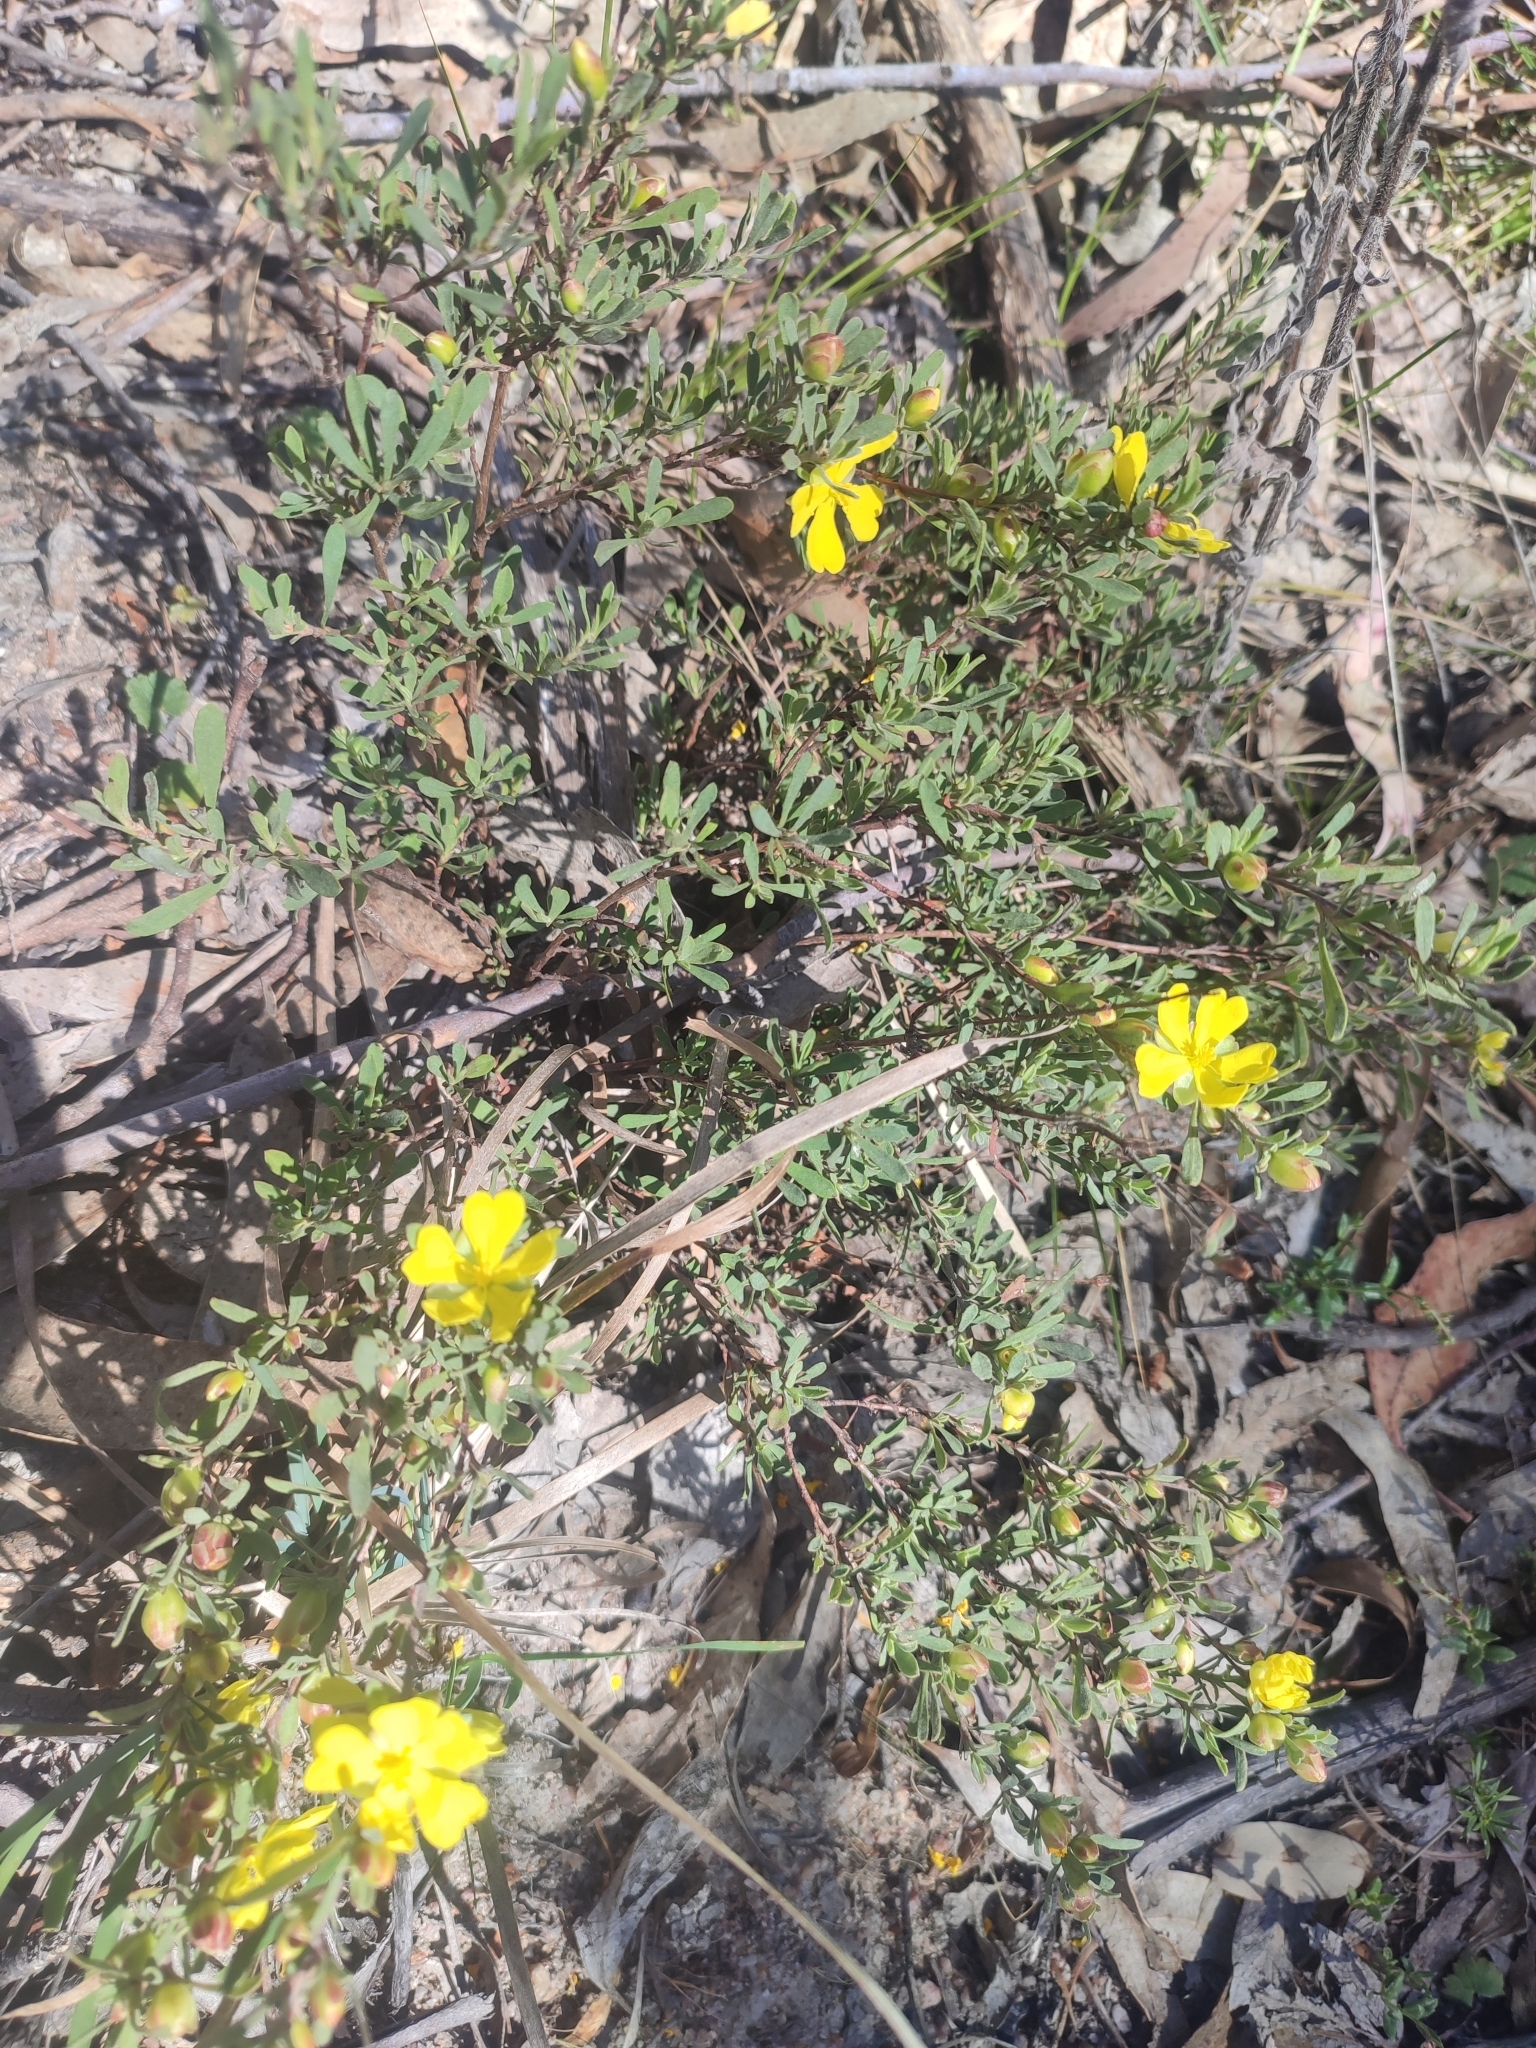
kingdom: Plantae
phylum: Tracheophyta
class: Magnoliopsida
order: Dilleniales
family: Dilleniaceae
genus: Hibbertia
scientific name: Hibbertia obtusifolia
